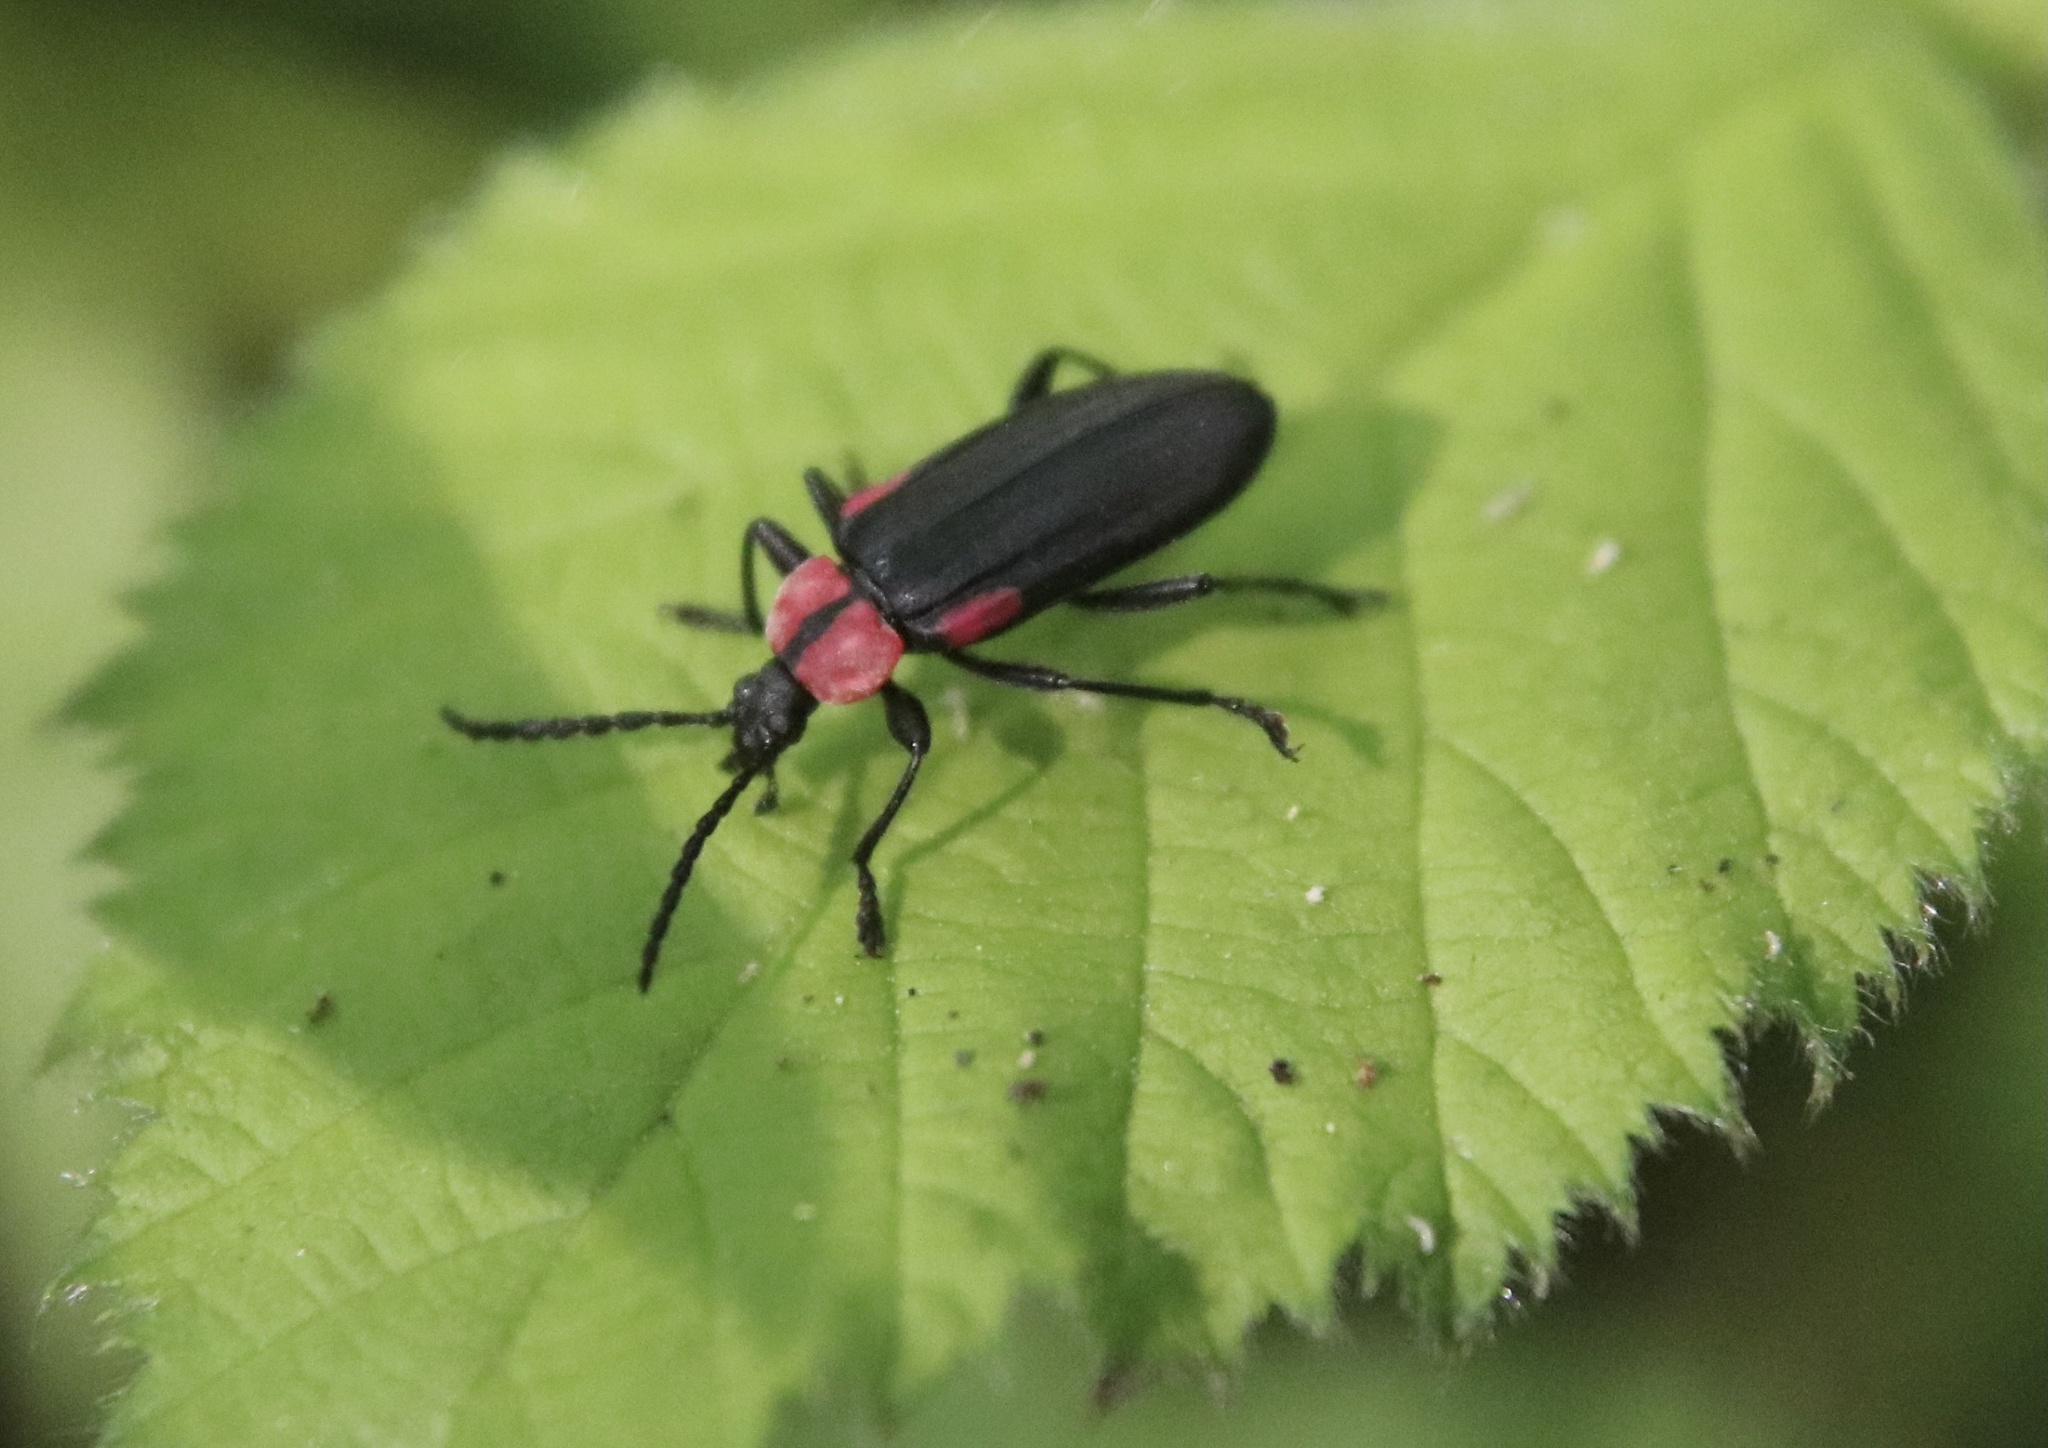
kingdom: Animalia
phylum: Arthropoda
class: Insecta
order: Coleoptera
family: Tenebrionidae
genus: Eucaliga
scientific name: Eucaliga
